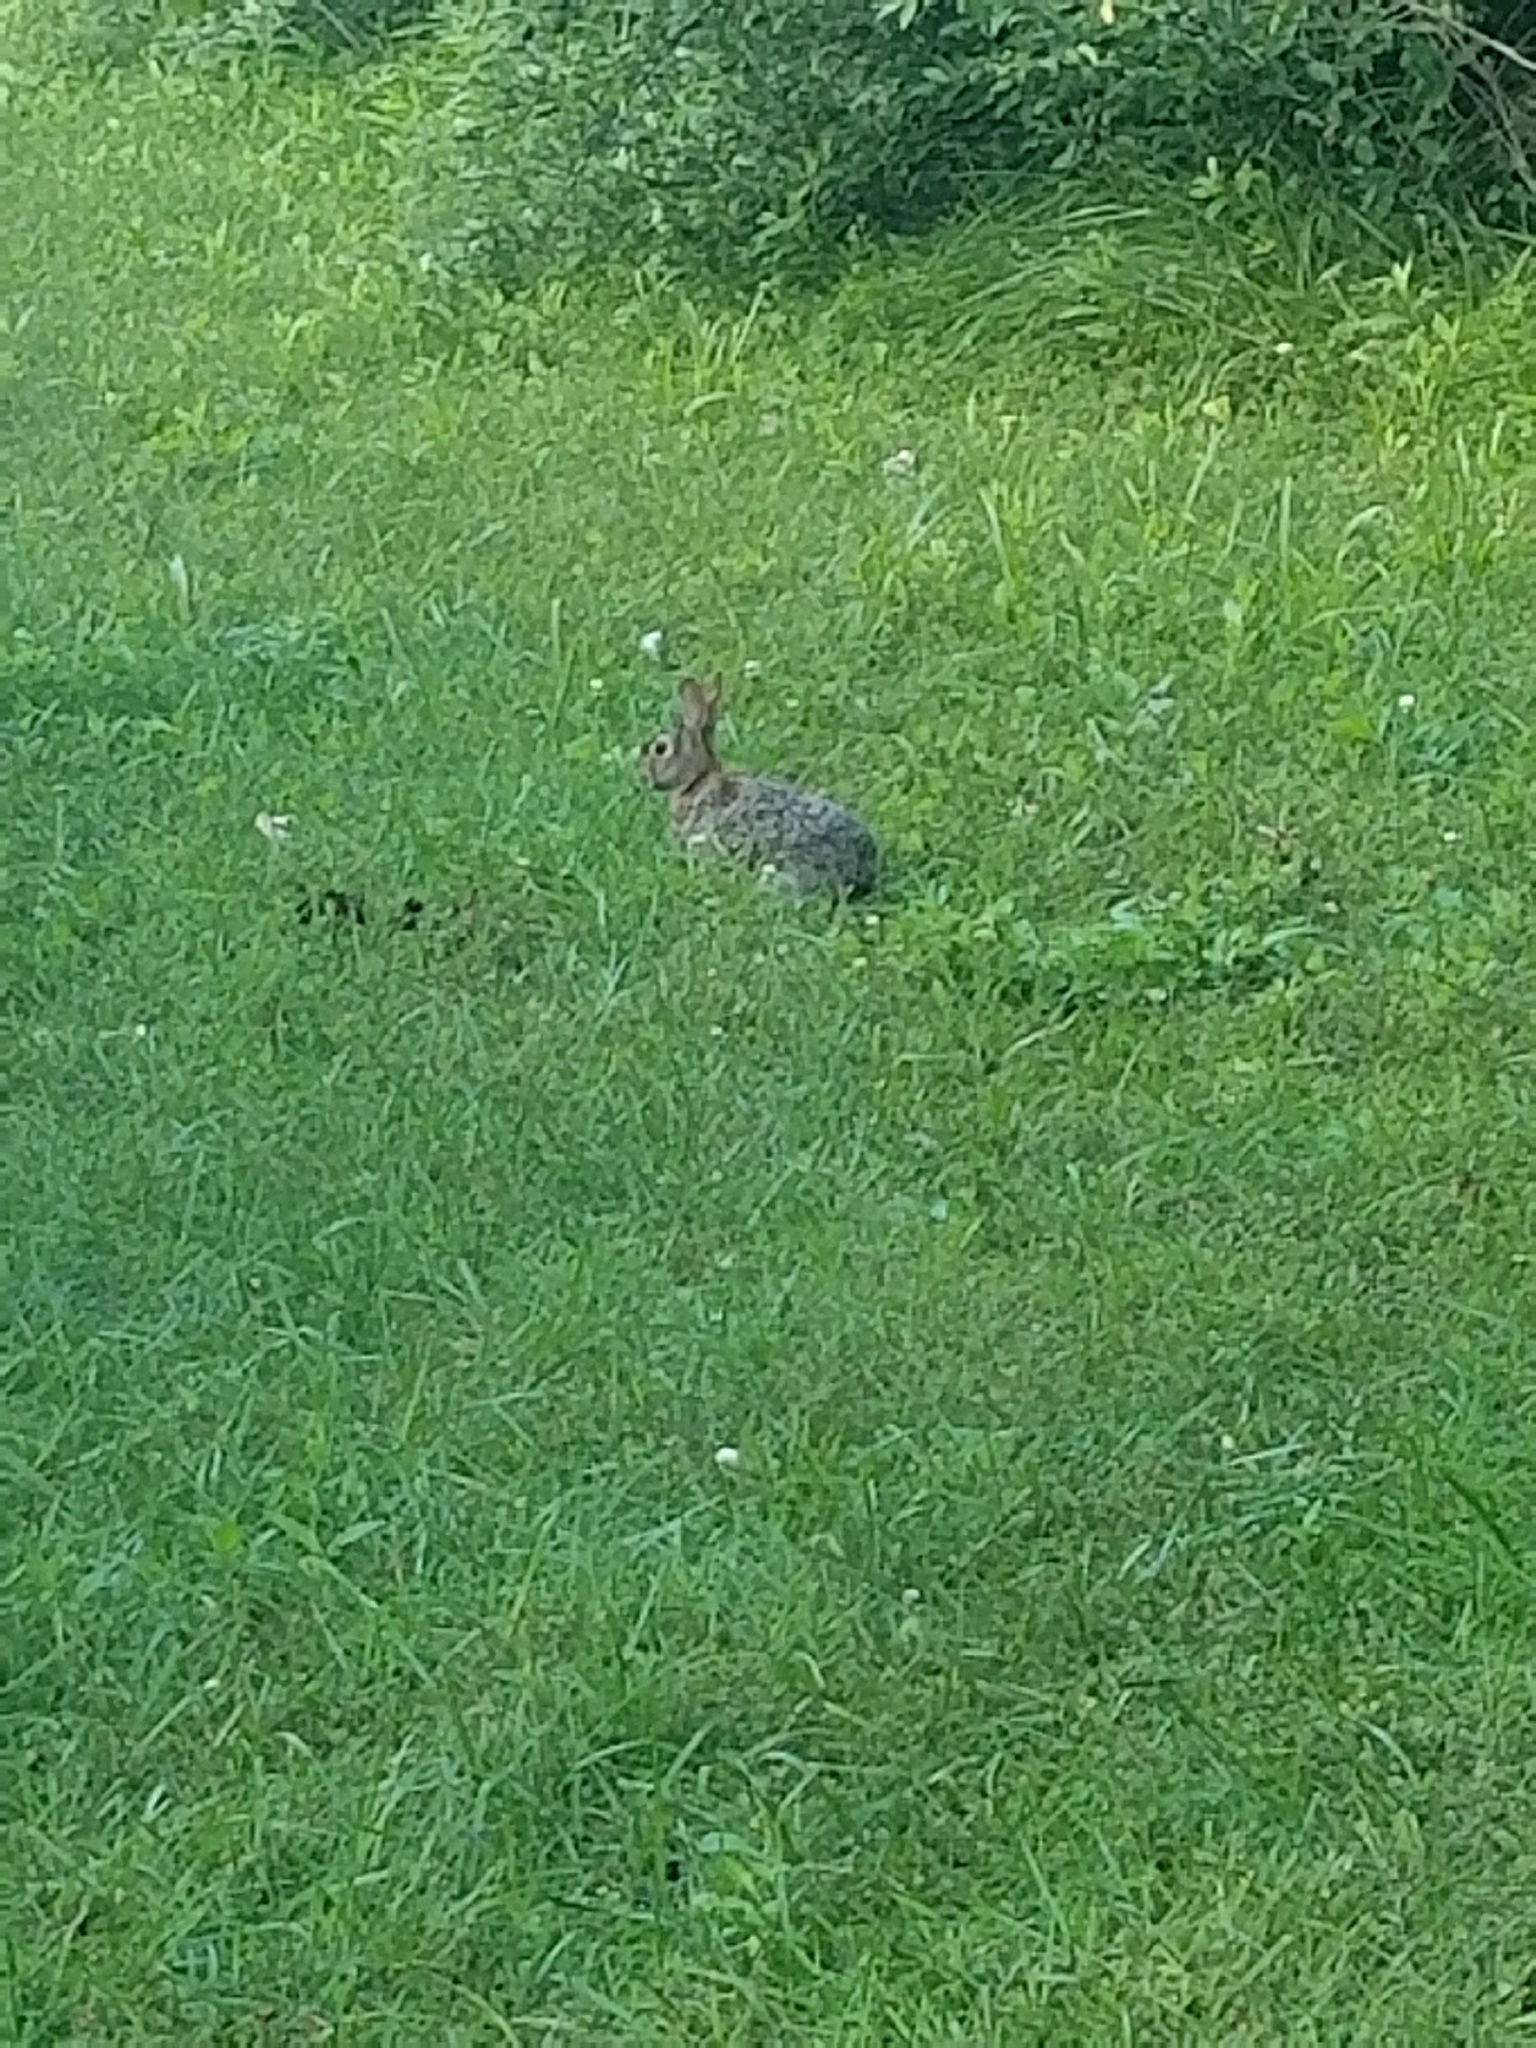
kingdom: Animalia
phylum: Chordata
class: Mammalia
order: Lagomorpha
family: Leporidae
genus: Sylvilagus
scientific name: Sylvilagus floridanus
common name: Eastern cottontail
